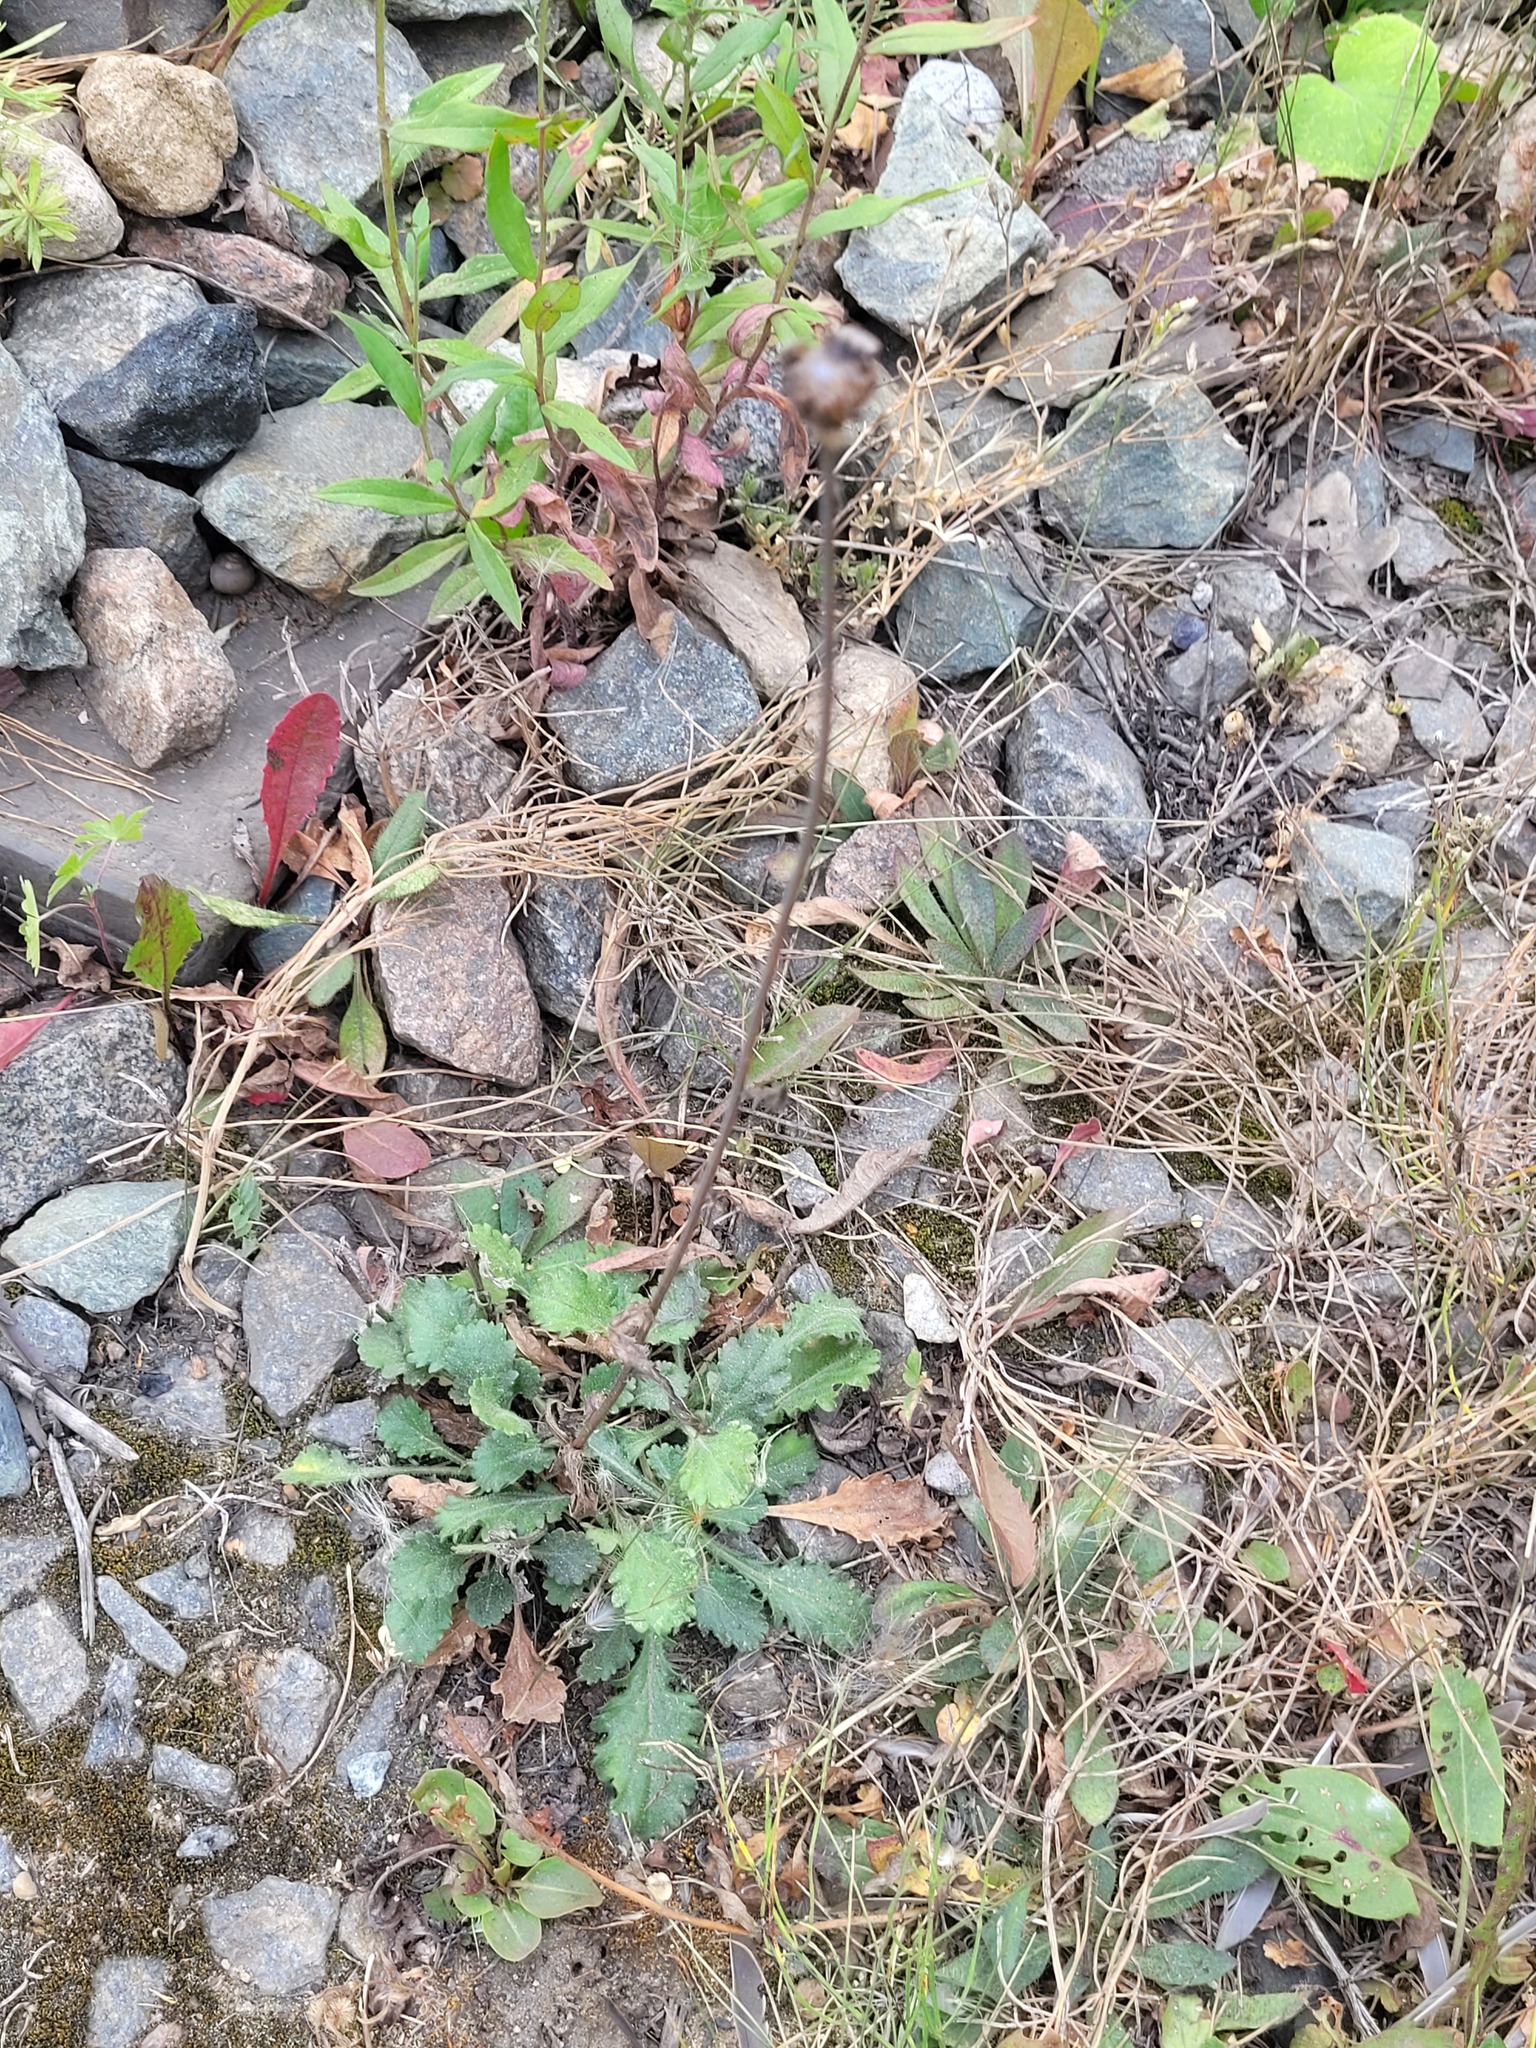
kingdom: Plantae
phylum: Tracheophyta
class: Magnoliopsida
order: Asterales
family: Asteraceae
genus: Leucanthemum
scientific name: Leucanthemum vulgare
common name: Oxeye daisy
